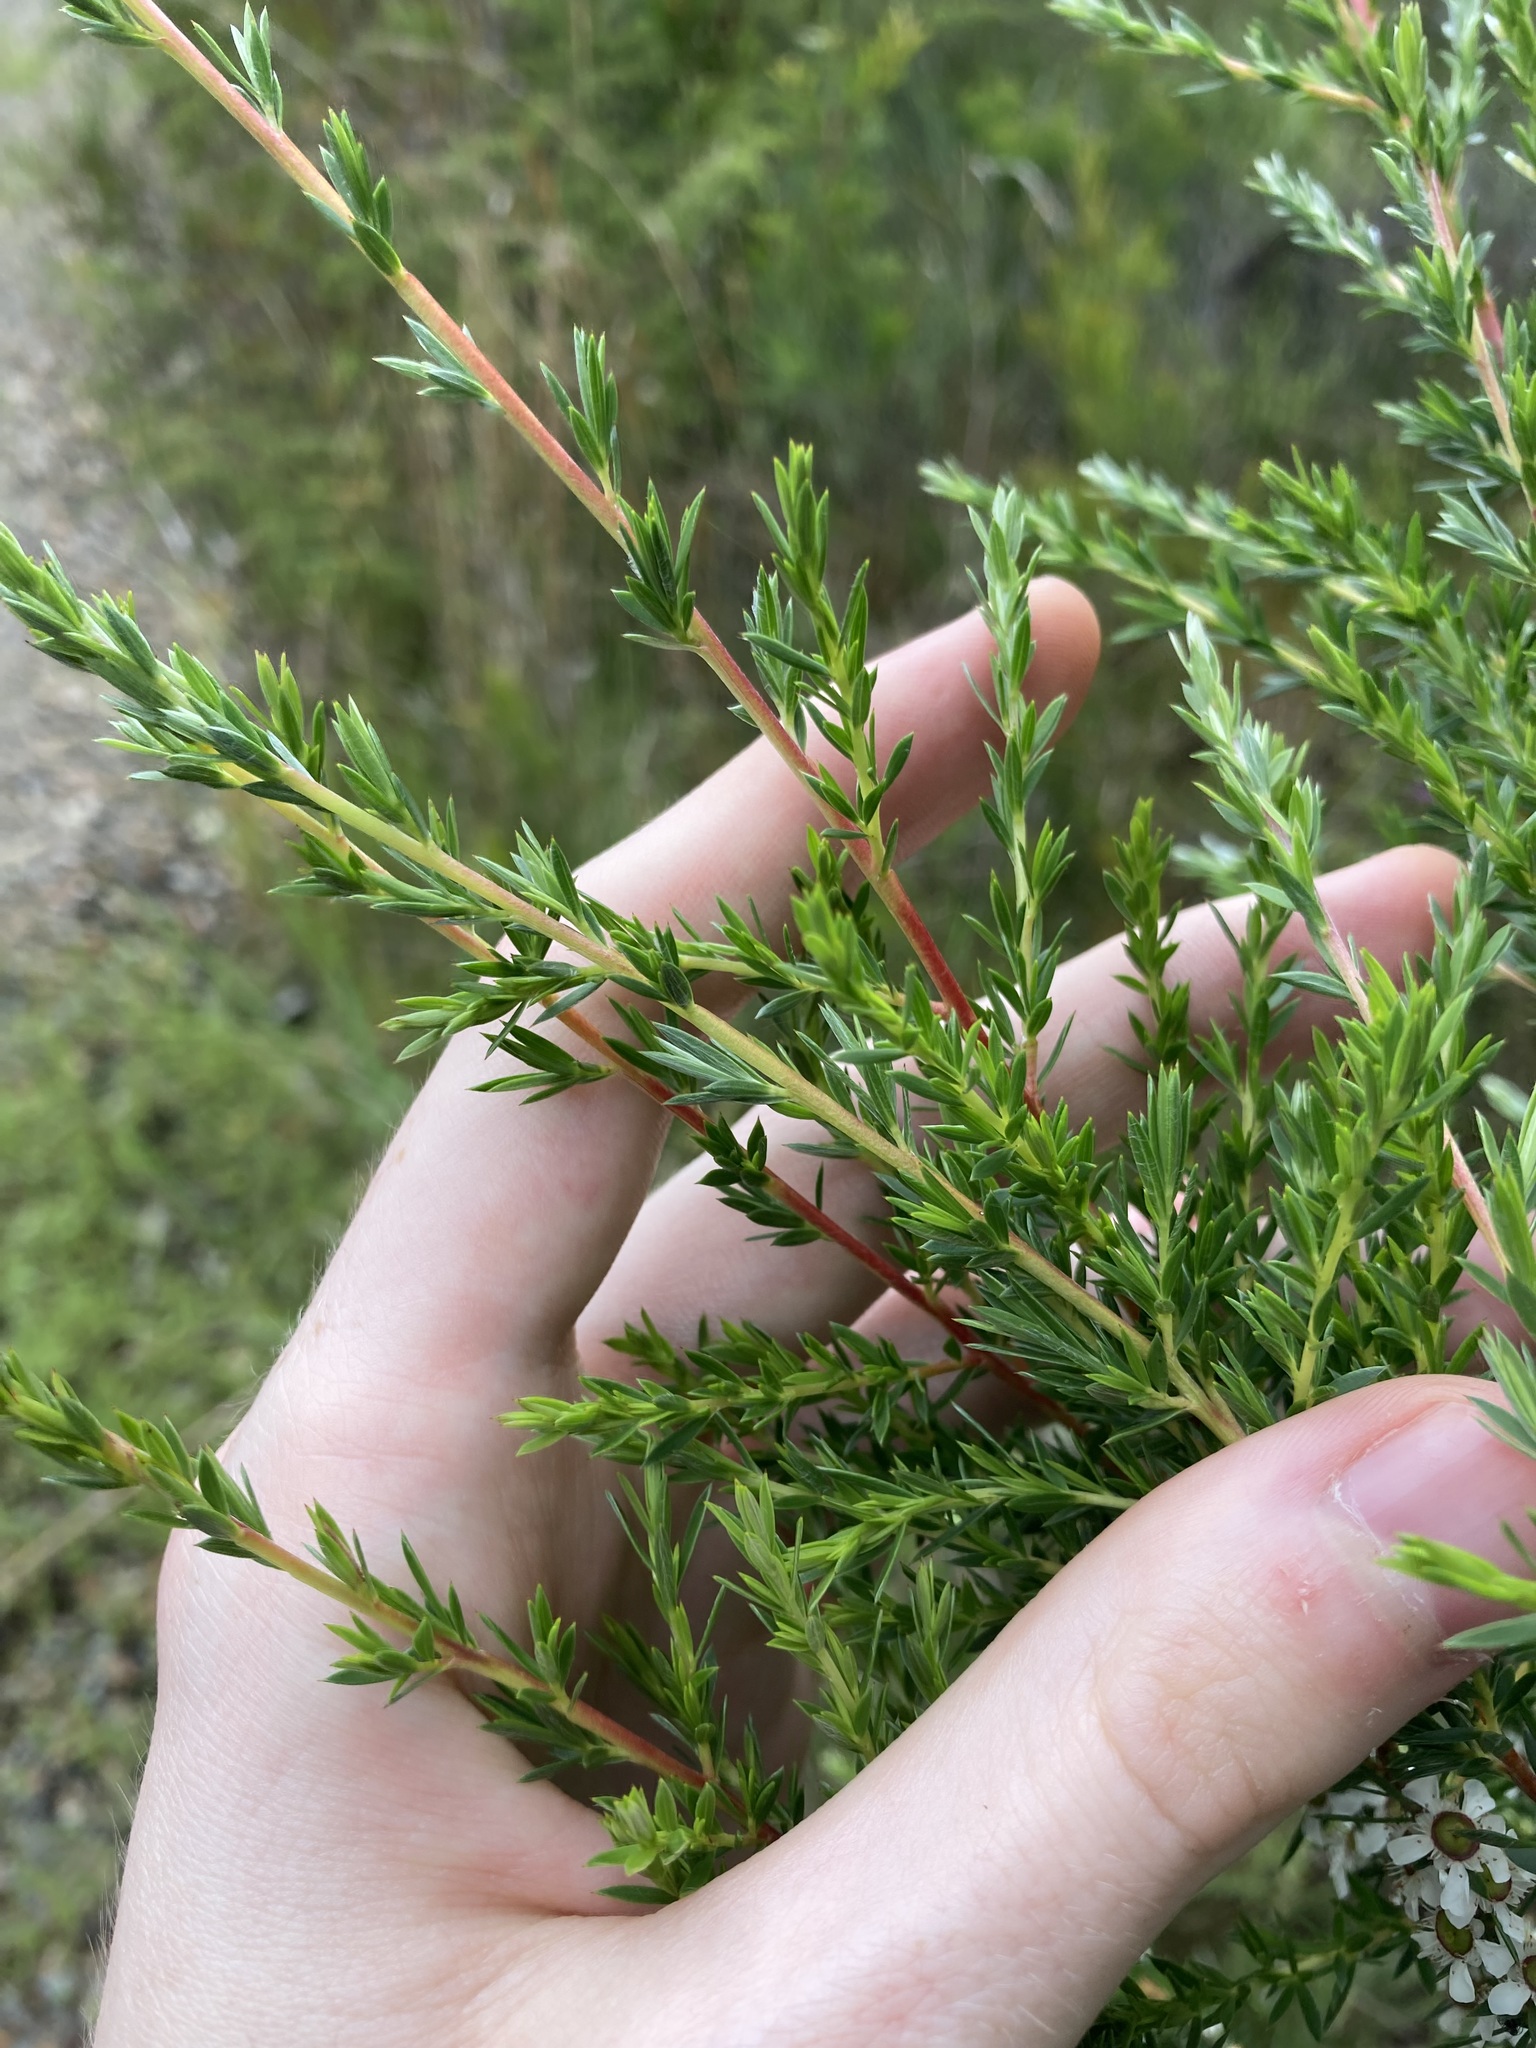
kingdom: Plantae
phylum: Tracheophyta
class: Magnoliopsida
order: Myrtales
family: Myrtaceae
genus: Leptospermum
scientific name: Leptospermum juniperinum
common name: Prickly teatree
